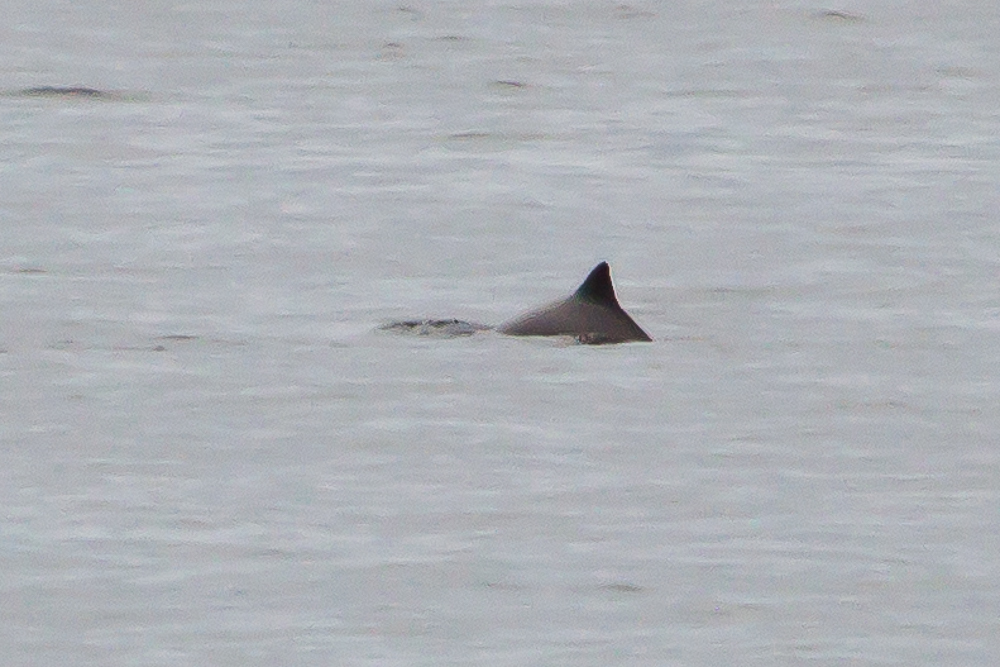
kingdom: Animalia
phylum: Chordata
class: Mammalia
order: Cetacea
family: Phocoenidae
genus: Phocoena
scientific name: Phocoena phocoena
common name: Harbor porpoise
